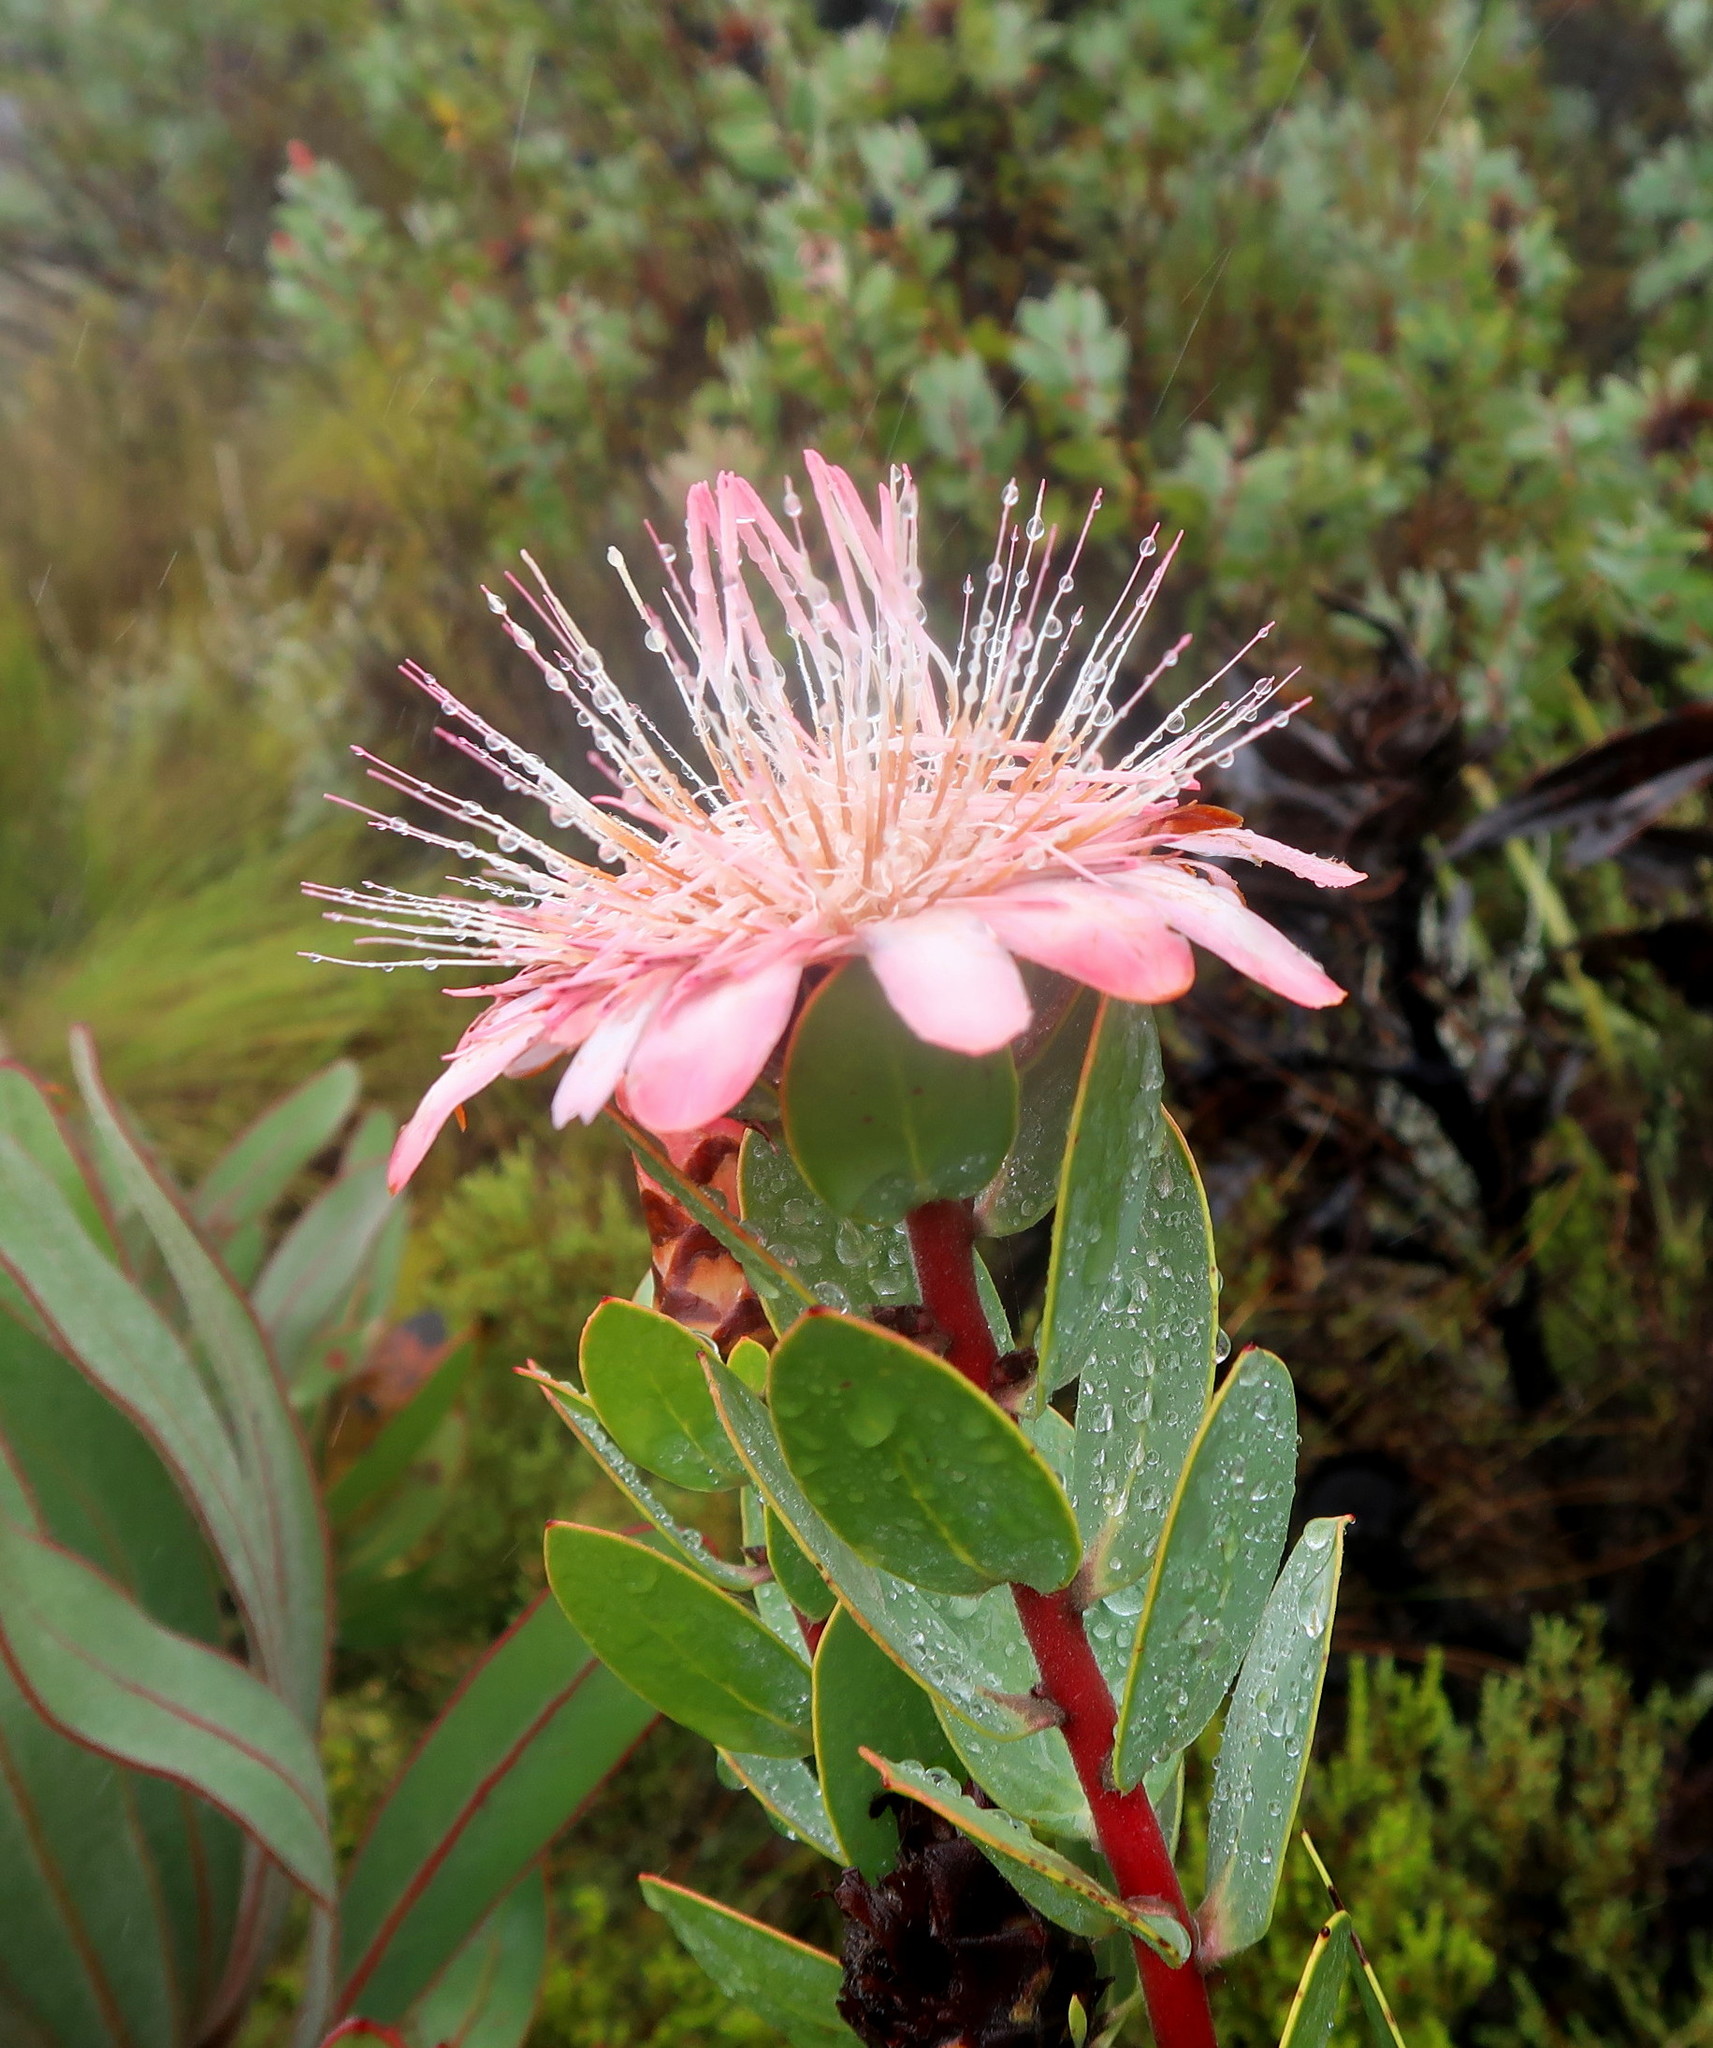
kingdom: Plantae
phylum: Tracheophyta
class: Magnoliopsida
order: Proteales
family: Proteaceae
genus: Protea
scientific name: Protea punctata
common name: Water sugarbush
